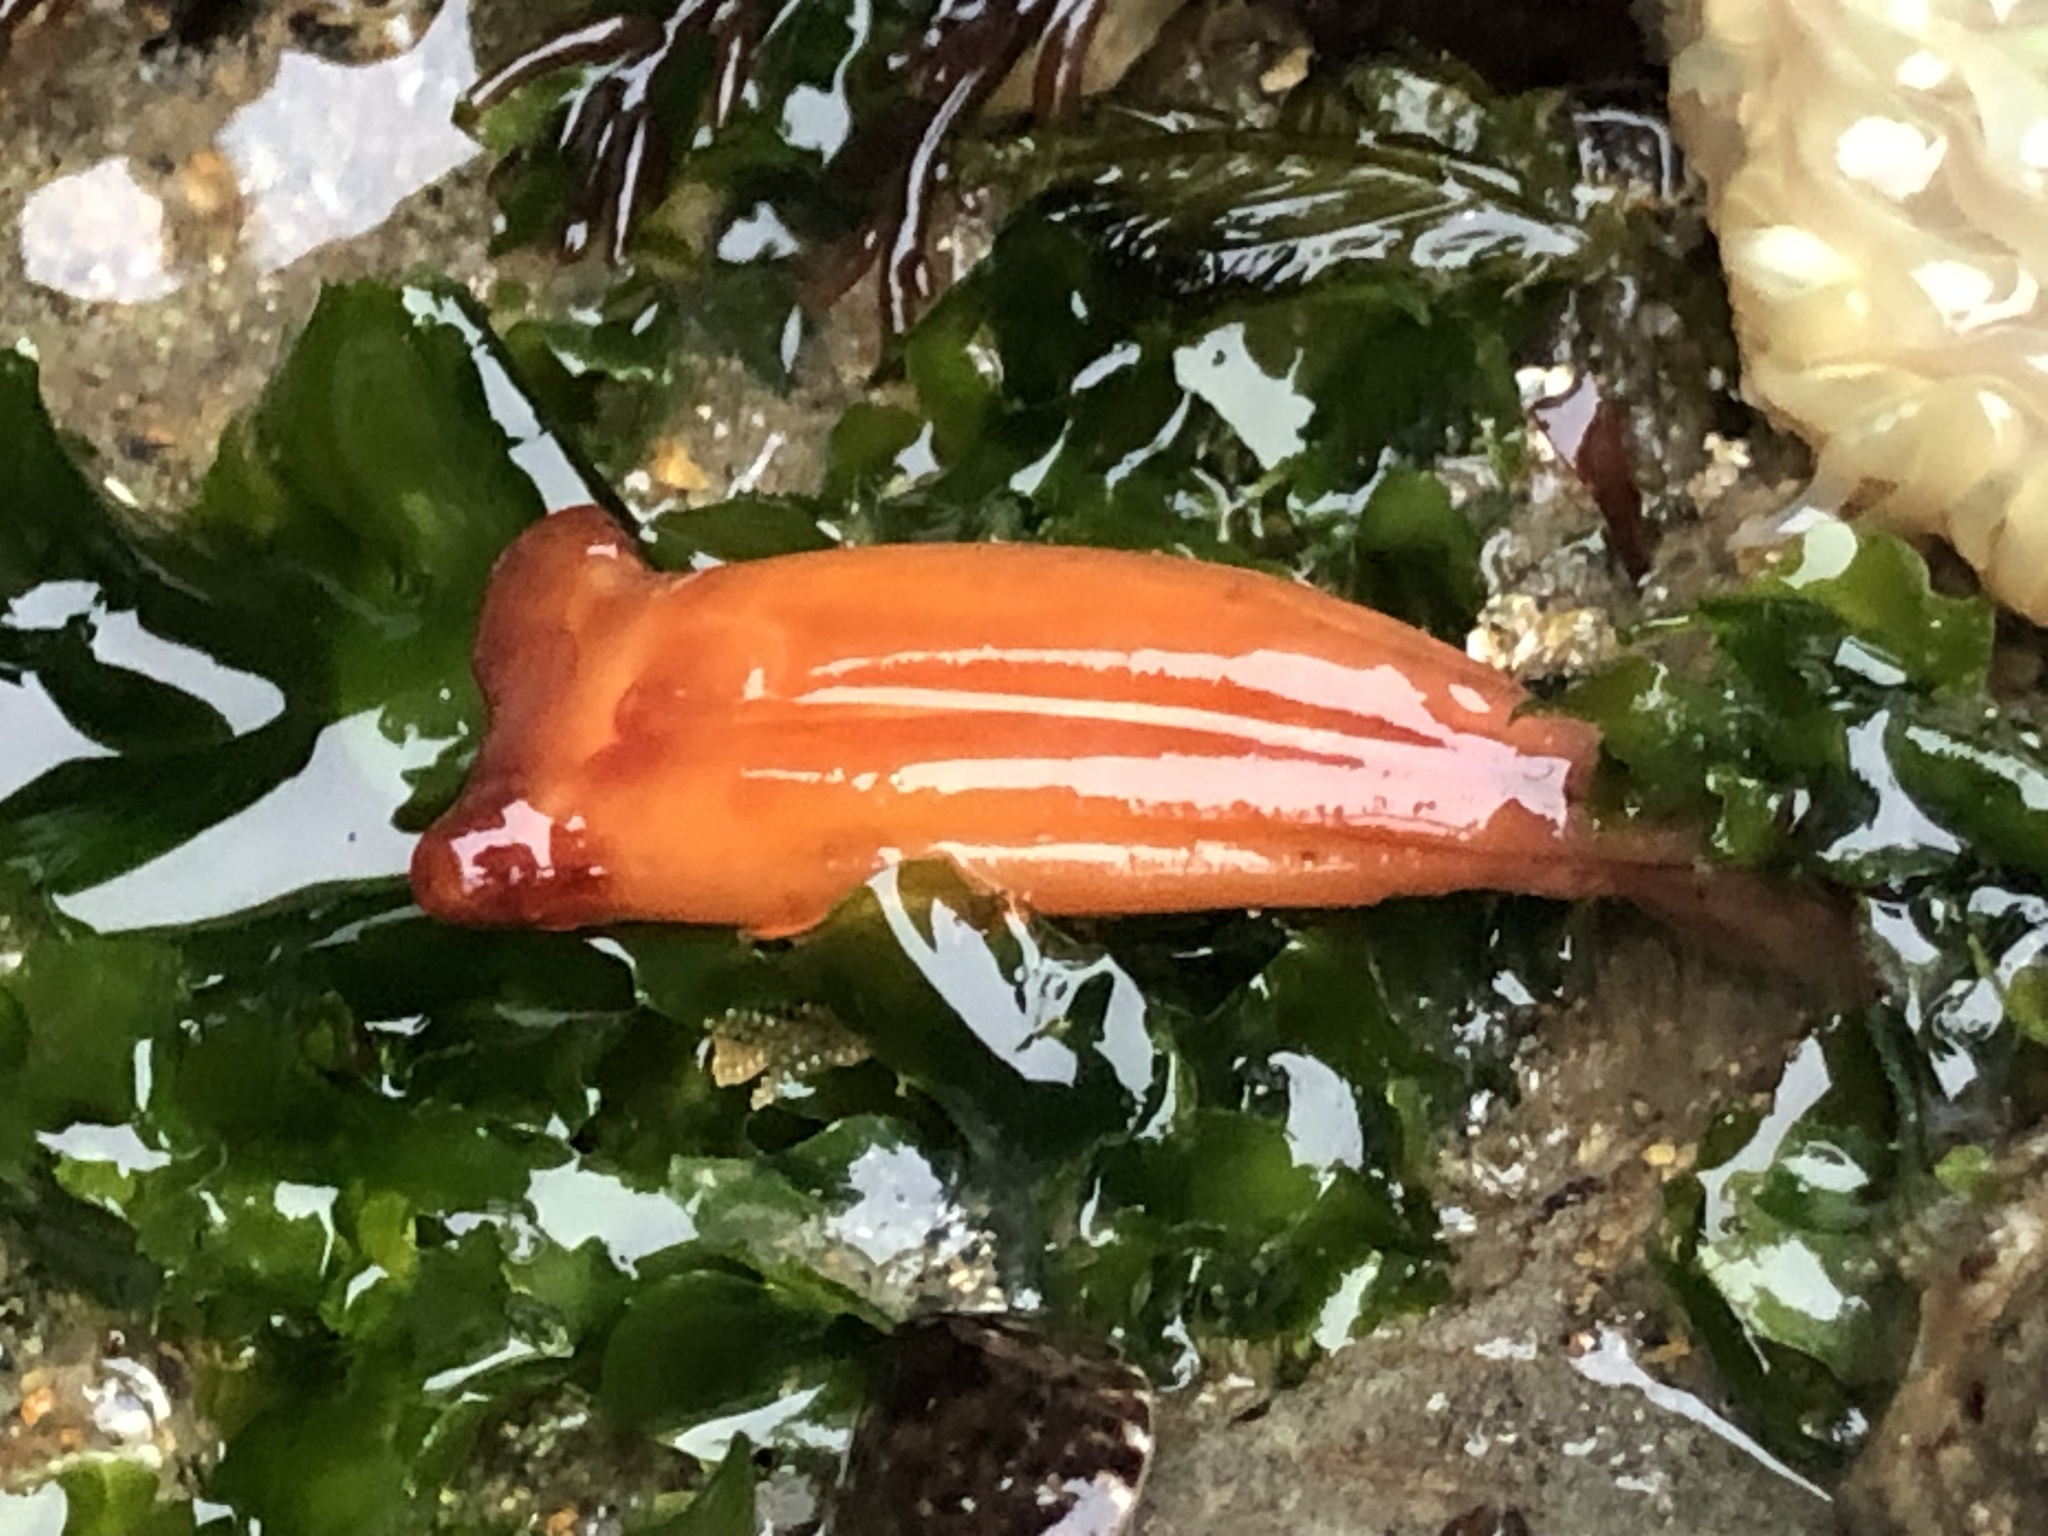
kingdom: Animalia
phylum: Chordata
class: Ascidiacea
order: Stolidobranchia
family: Styelidae
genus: Styela
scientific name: Styela montereyensis
